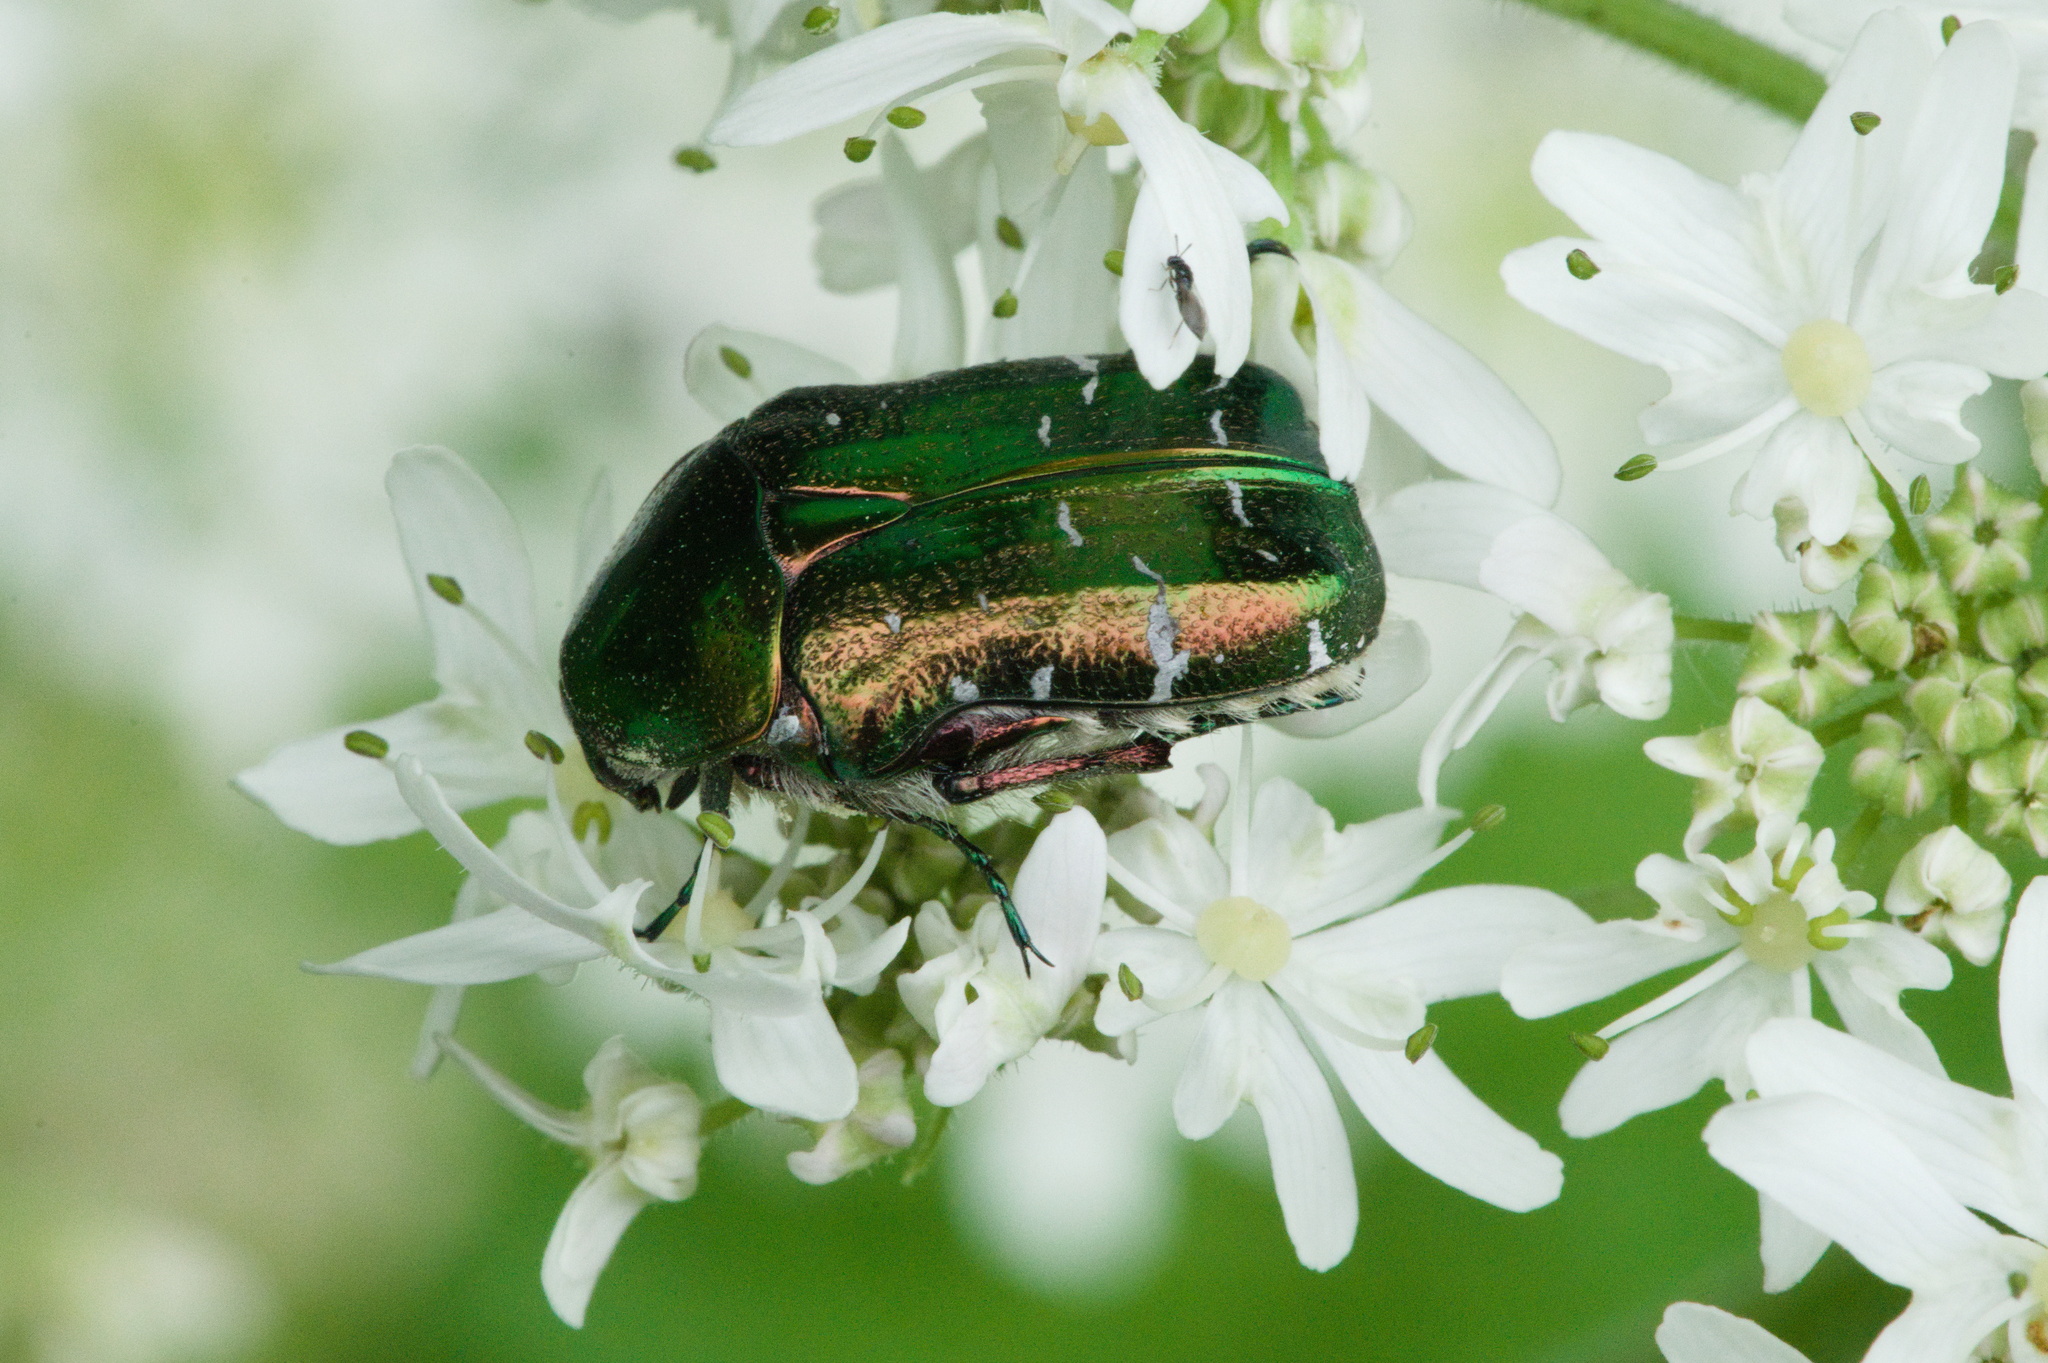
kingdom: Animalia
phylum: Arthropoda
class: Insecta
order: Coleoptera
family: Scarabaeidae
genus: Cetonia
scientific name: Cetonia aurata
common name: Rose chafer
